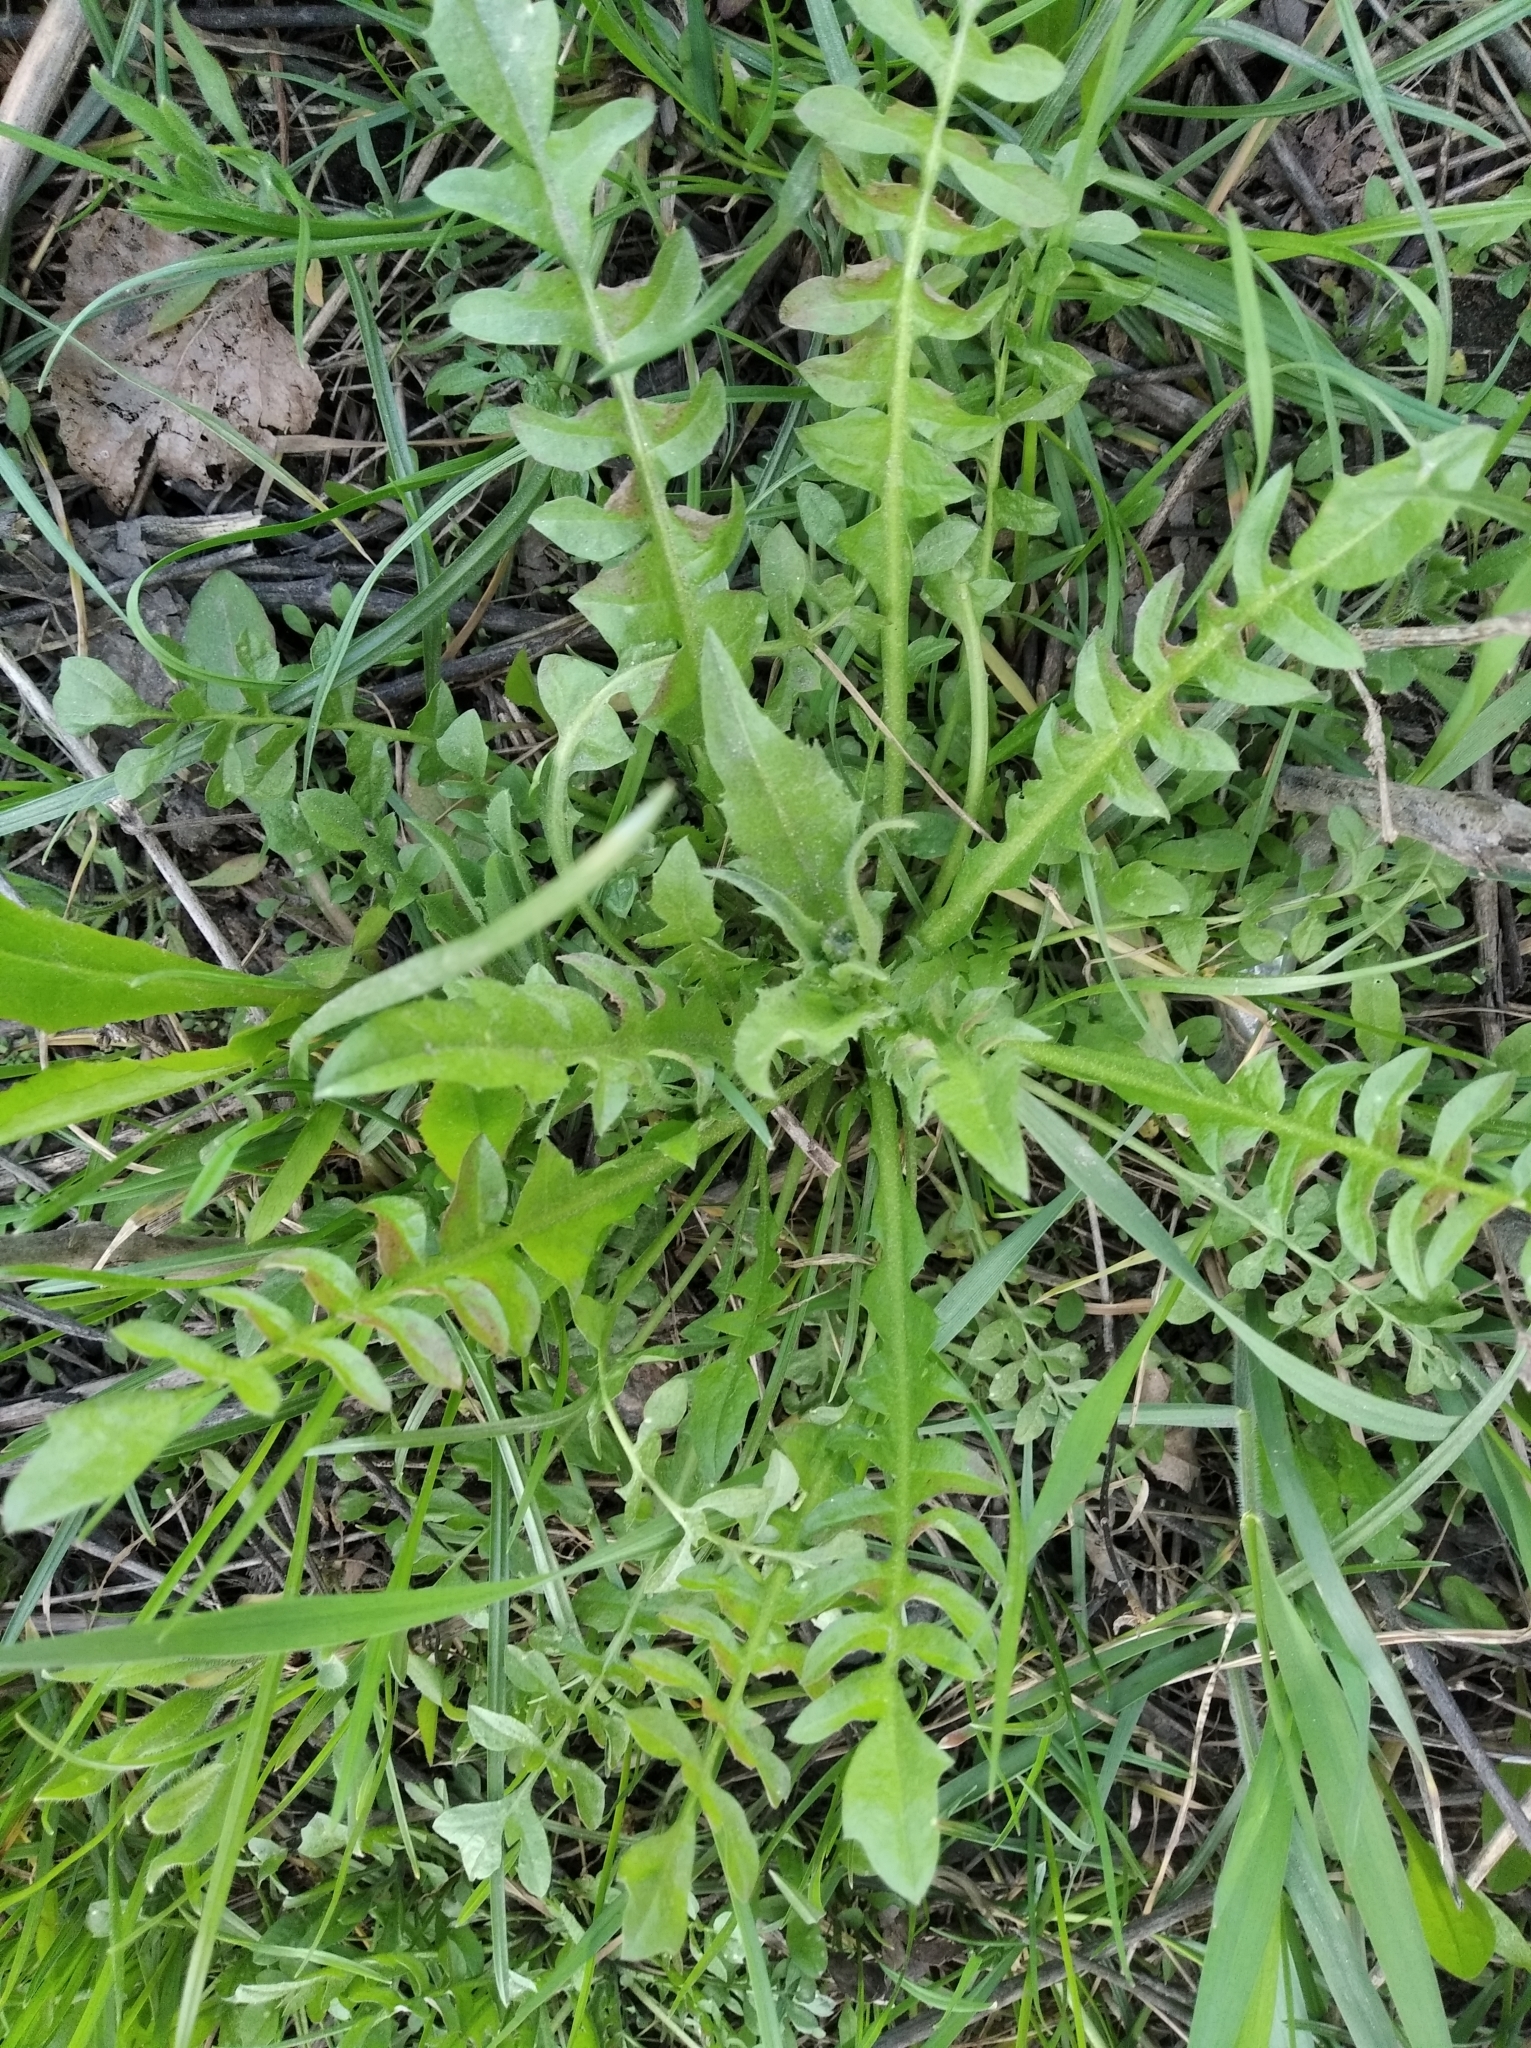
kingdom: Plantae
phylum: Tracheophyta
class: Magnoliopsida
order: Brassicales
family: Brassicaceae
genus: Capsella
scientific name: Capsella bursa-pastoris
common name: Shepherd's purse
